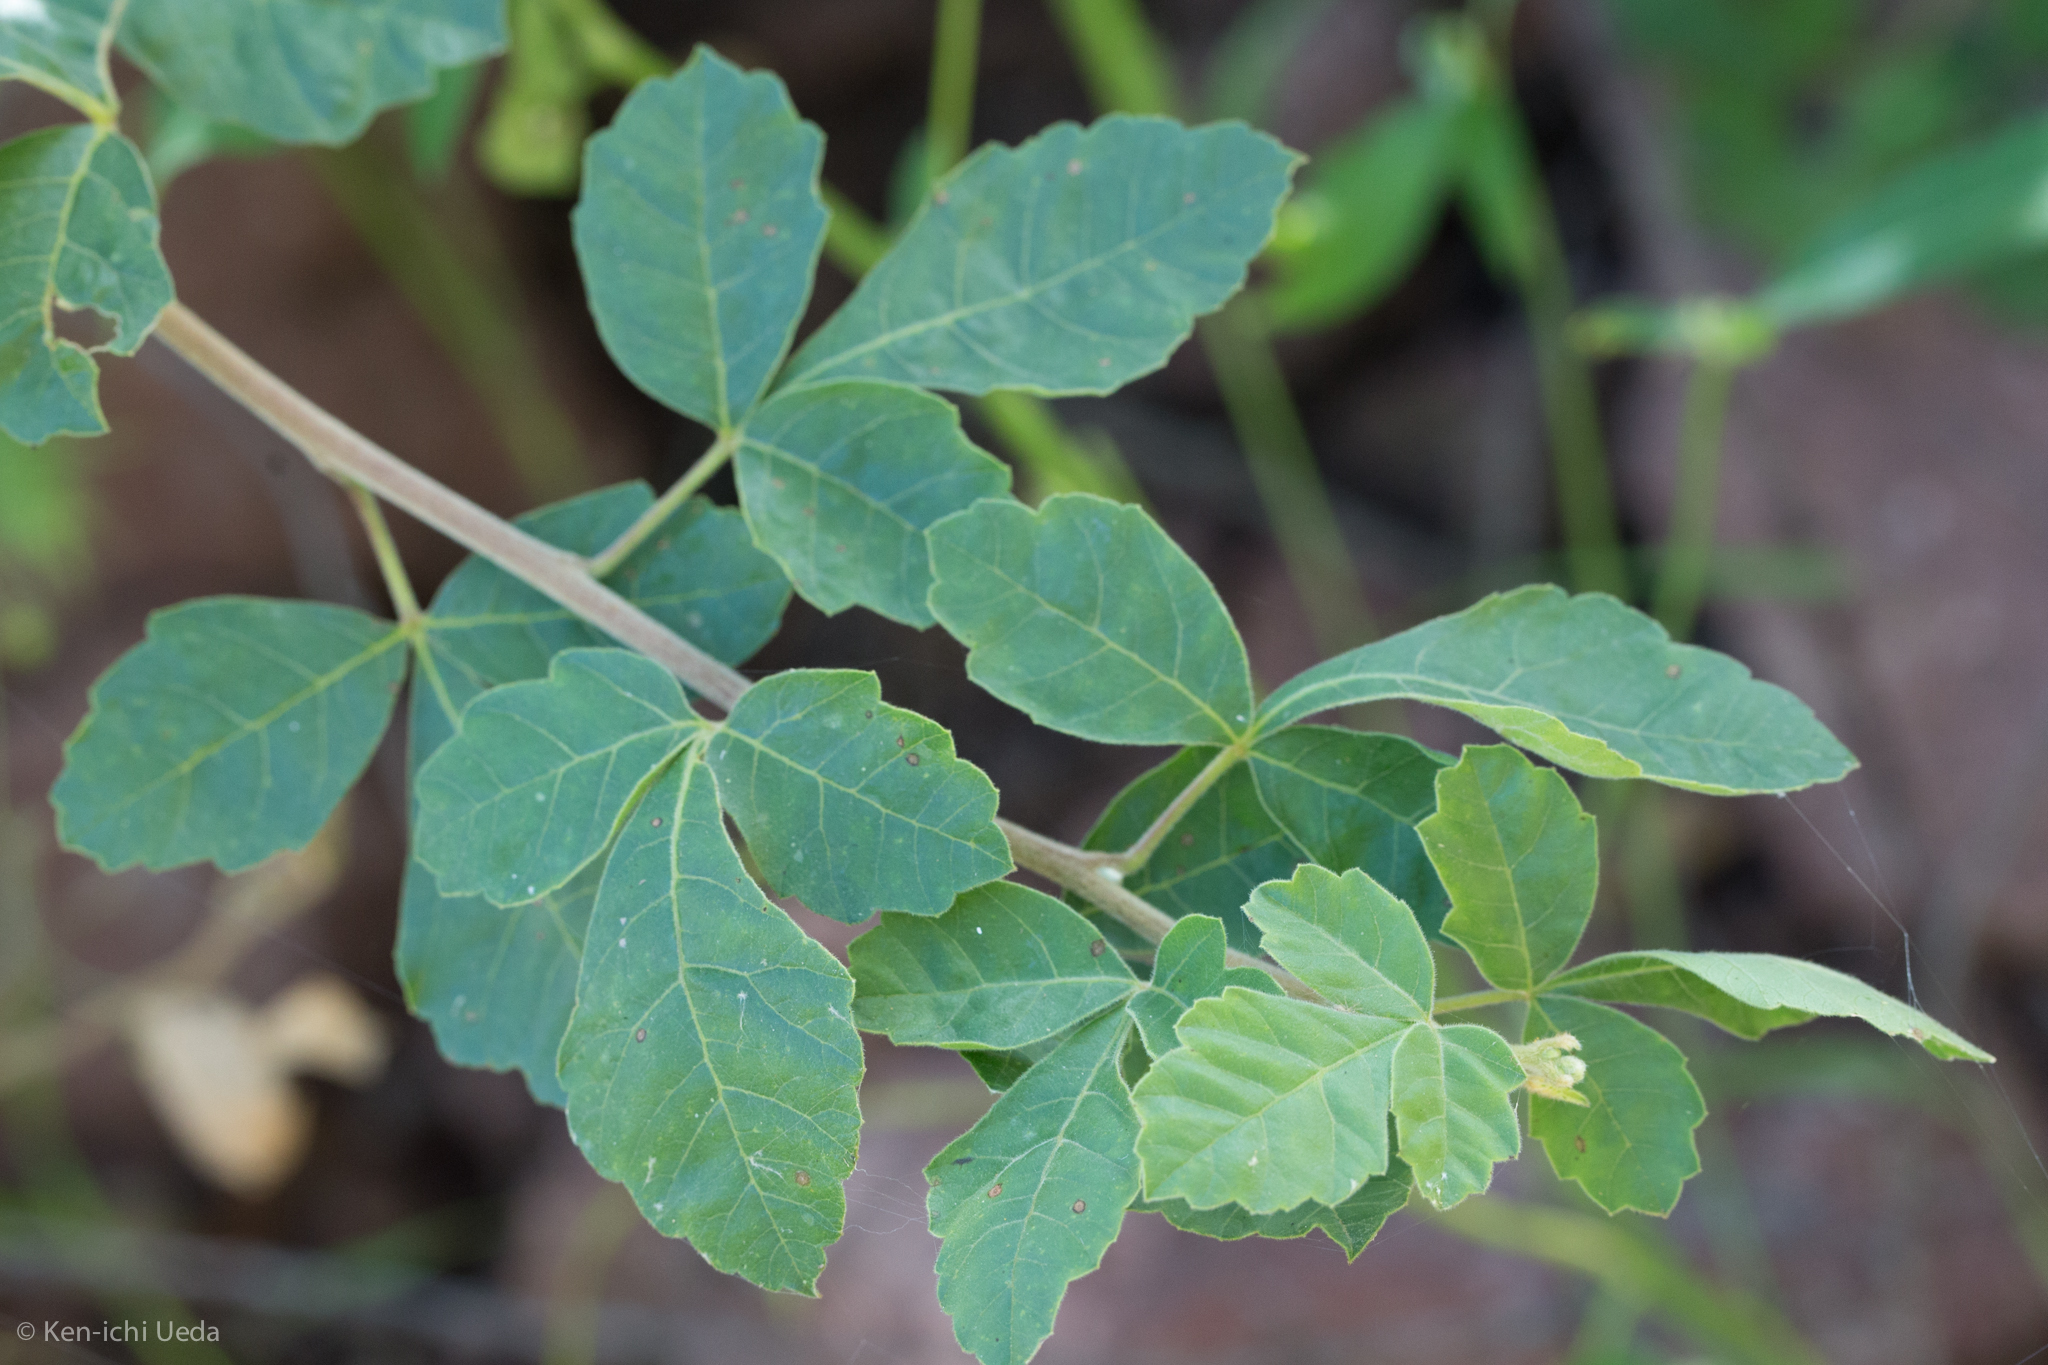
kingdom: Plantae
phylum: Tracheophyta
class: Magnoliopsida
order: Sapindales
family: Anacardiaceae
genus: Rhus
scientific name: Rhus aromatica
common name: Aromatic sumac
